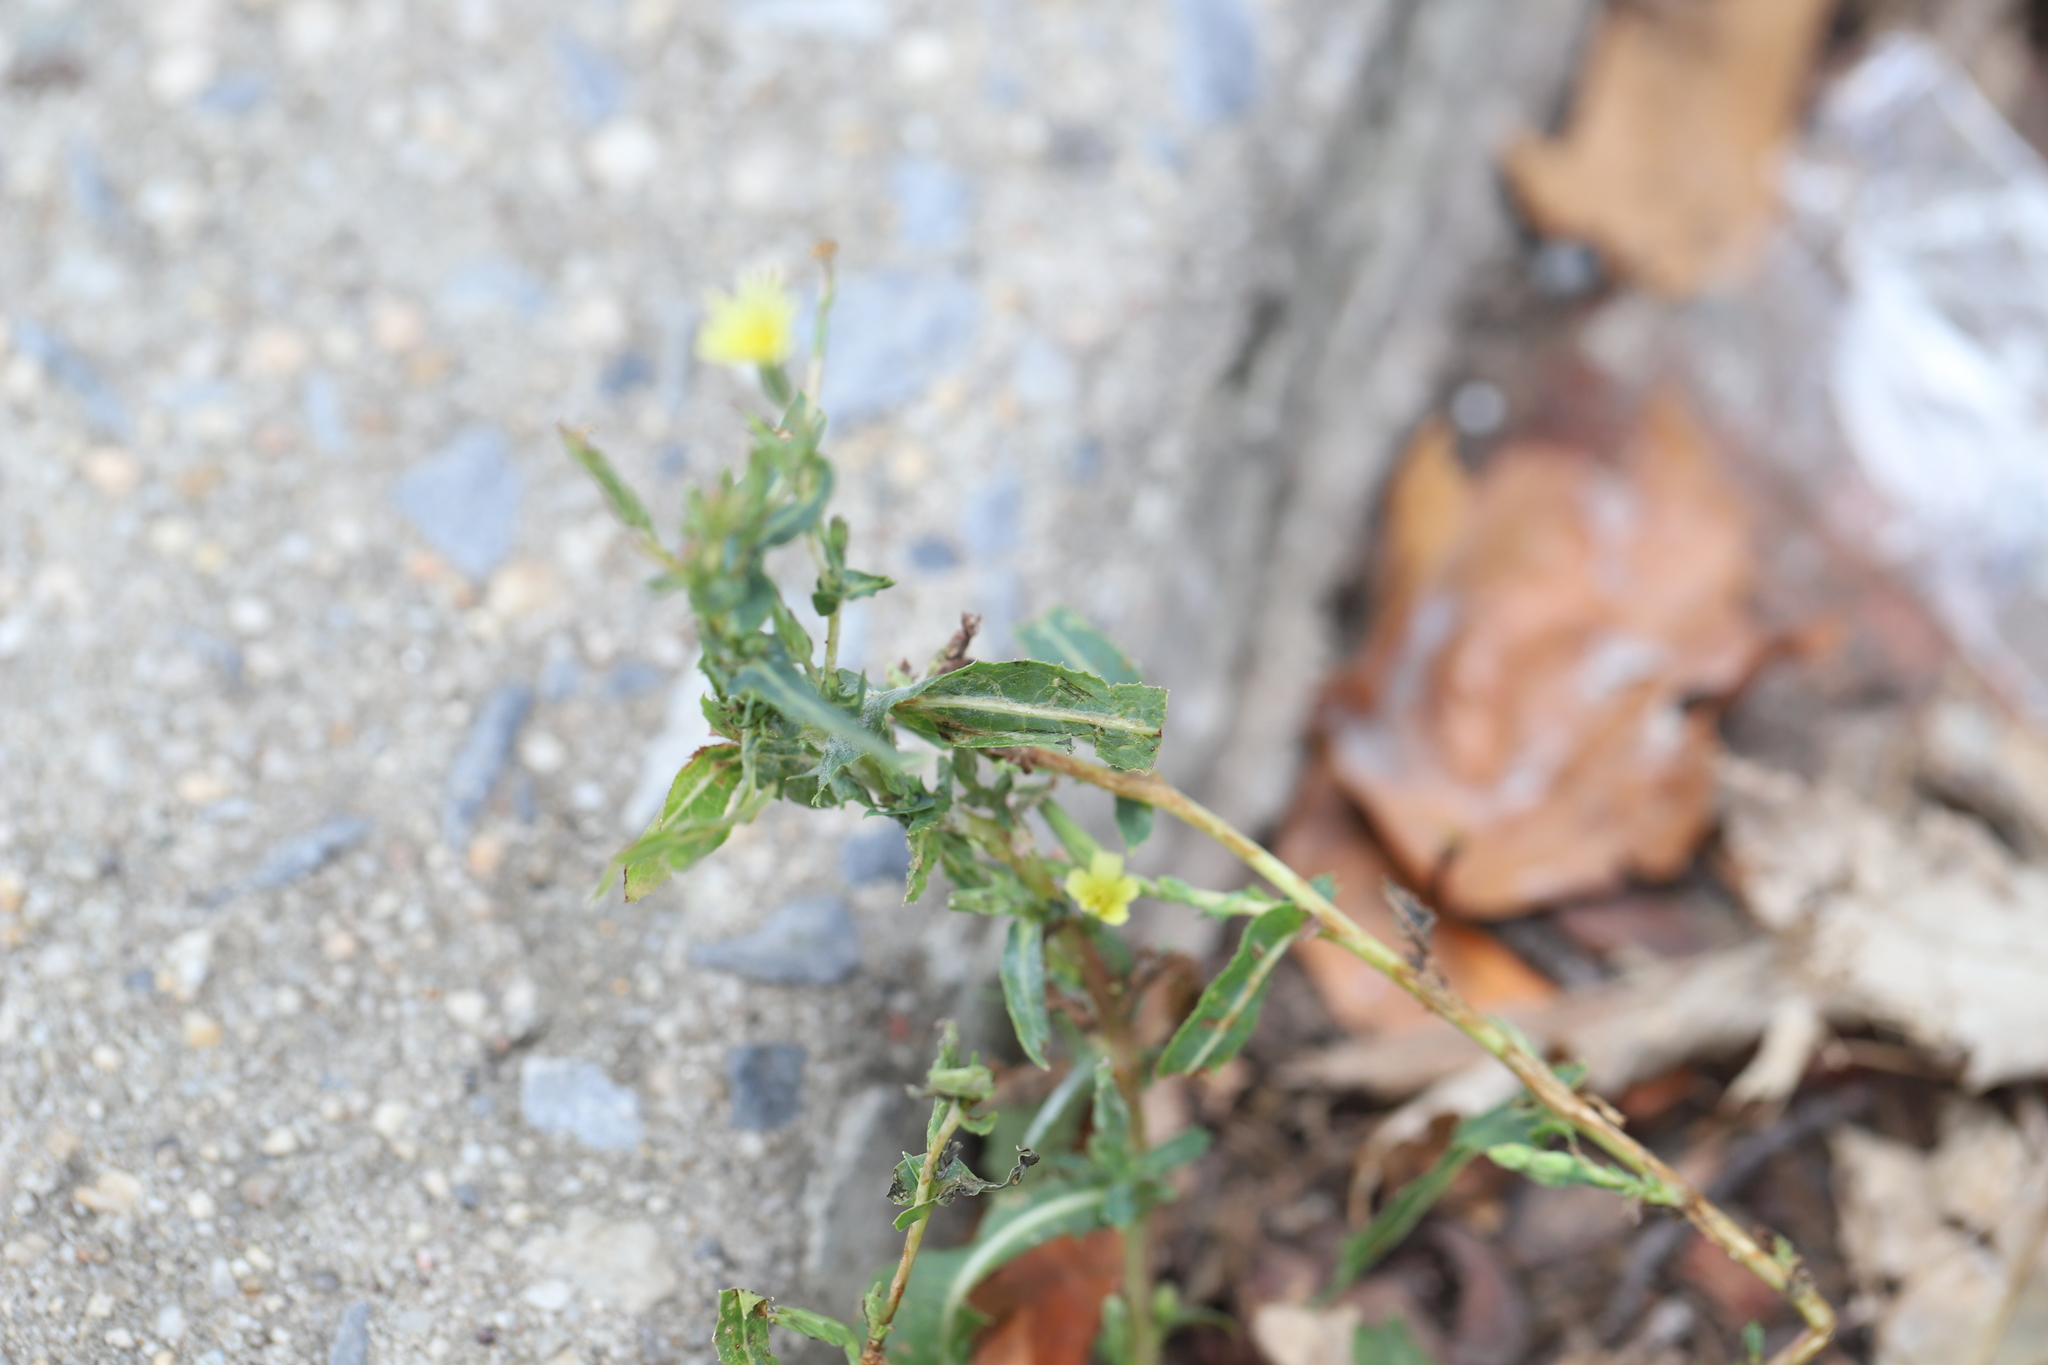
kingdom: Plantae
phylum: Tracheophyta
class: Magnoliopsida
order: Asterales
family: Asteraceae
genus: Lactuca
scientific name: Lactuca serriola
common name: Prickly lettuce
